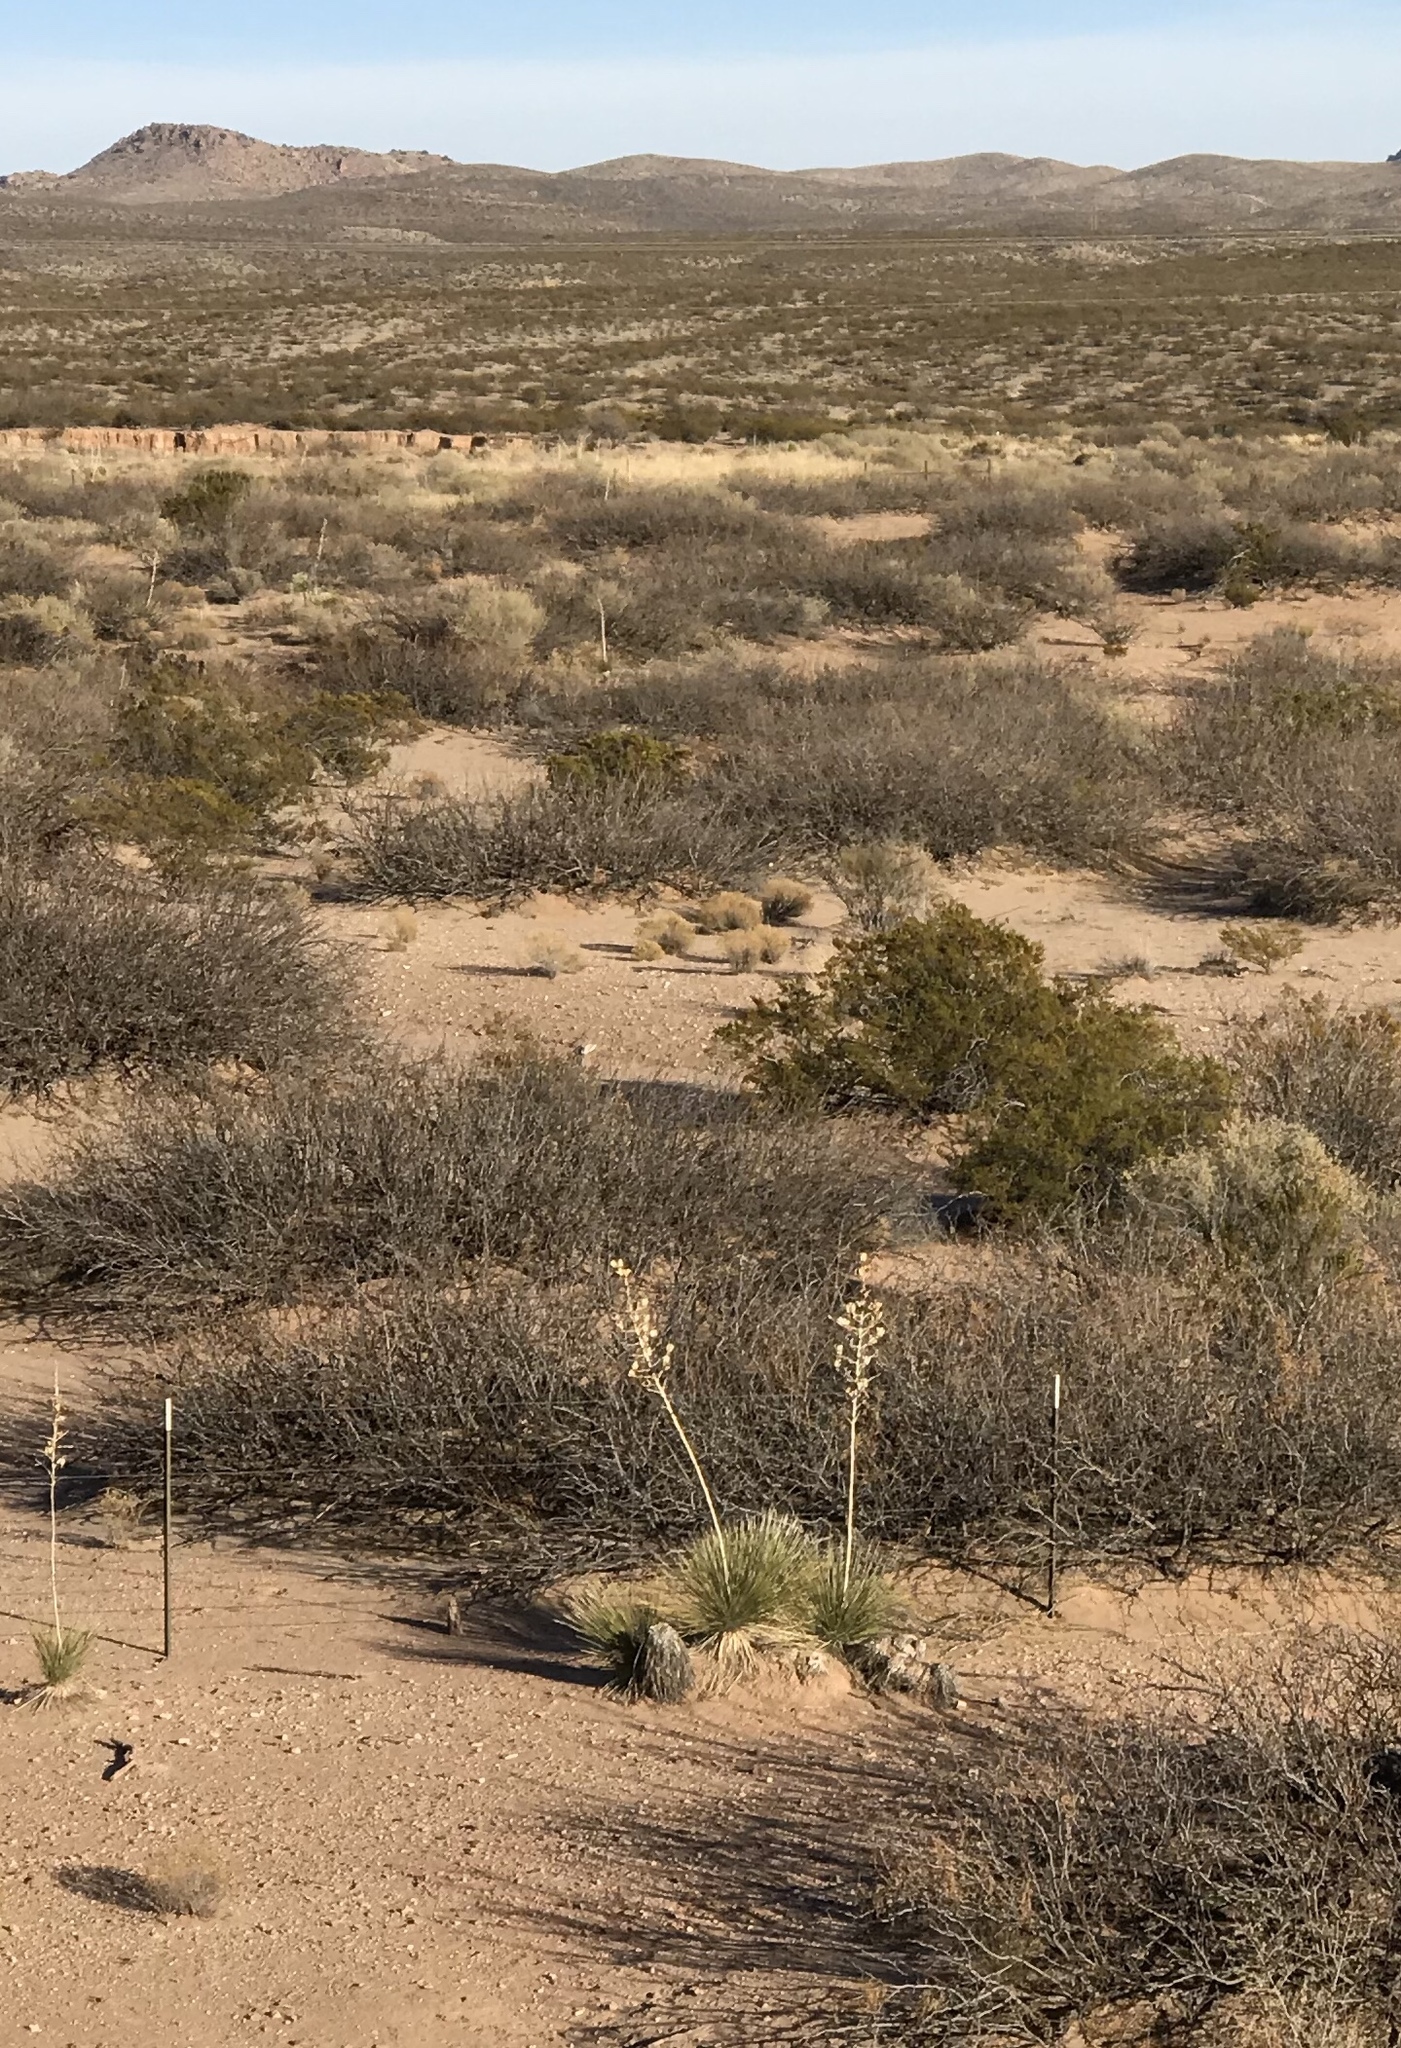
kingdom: Plantae
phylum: Tracheophyta
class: Liliopsida
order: Asparagales
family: Asparagaceae
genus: Yucca
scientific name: Yucca elata
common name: Palmella
